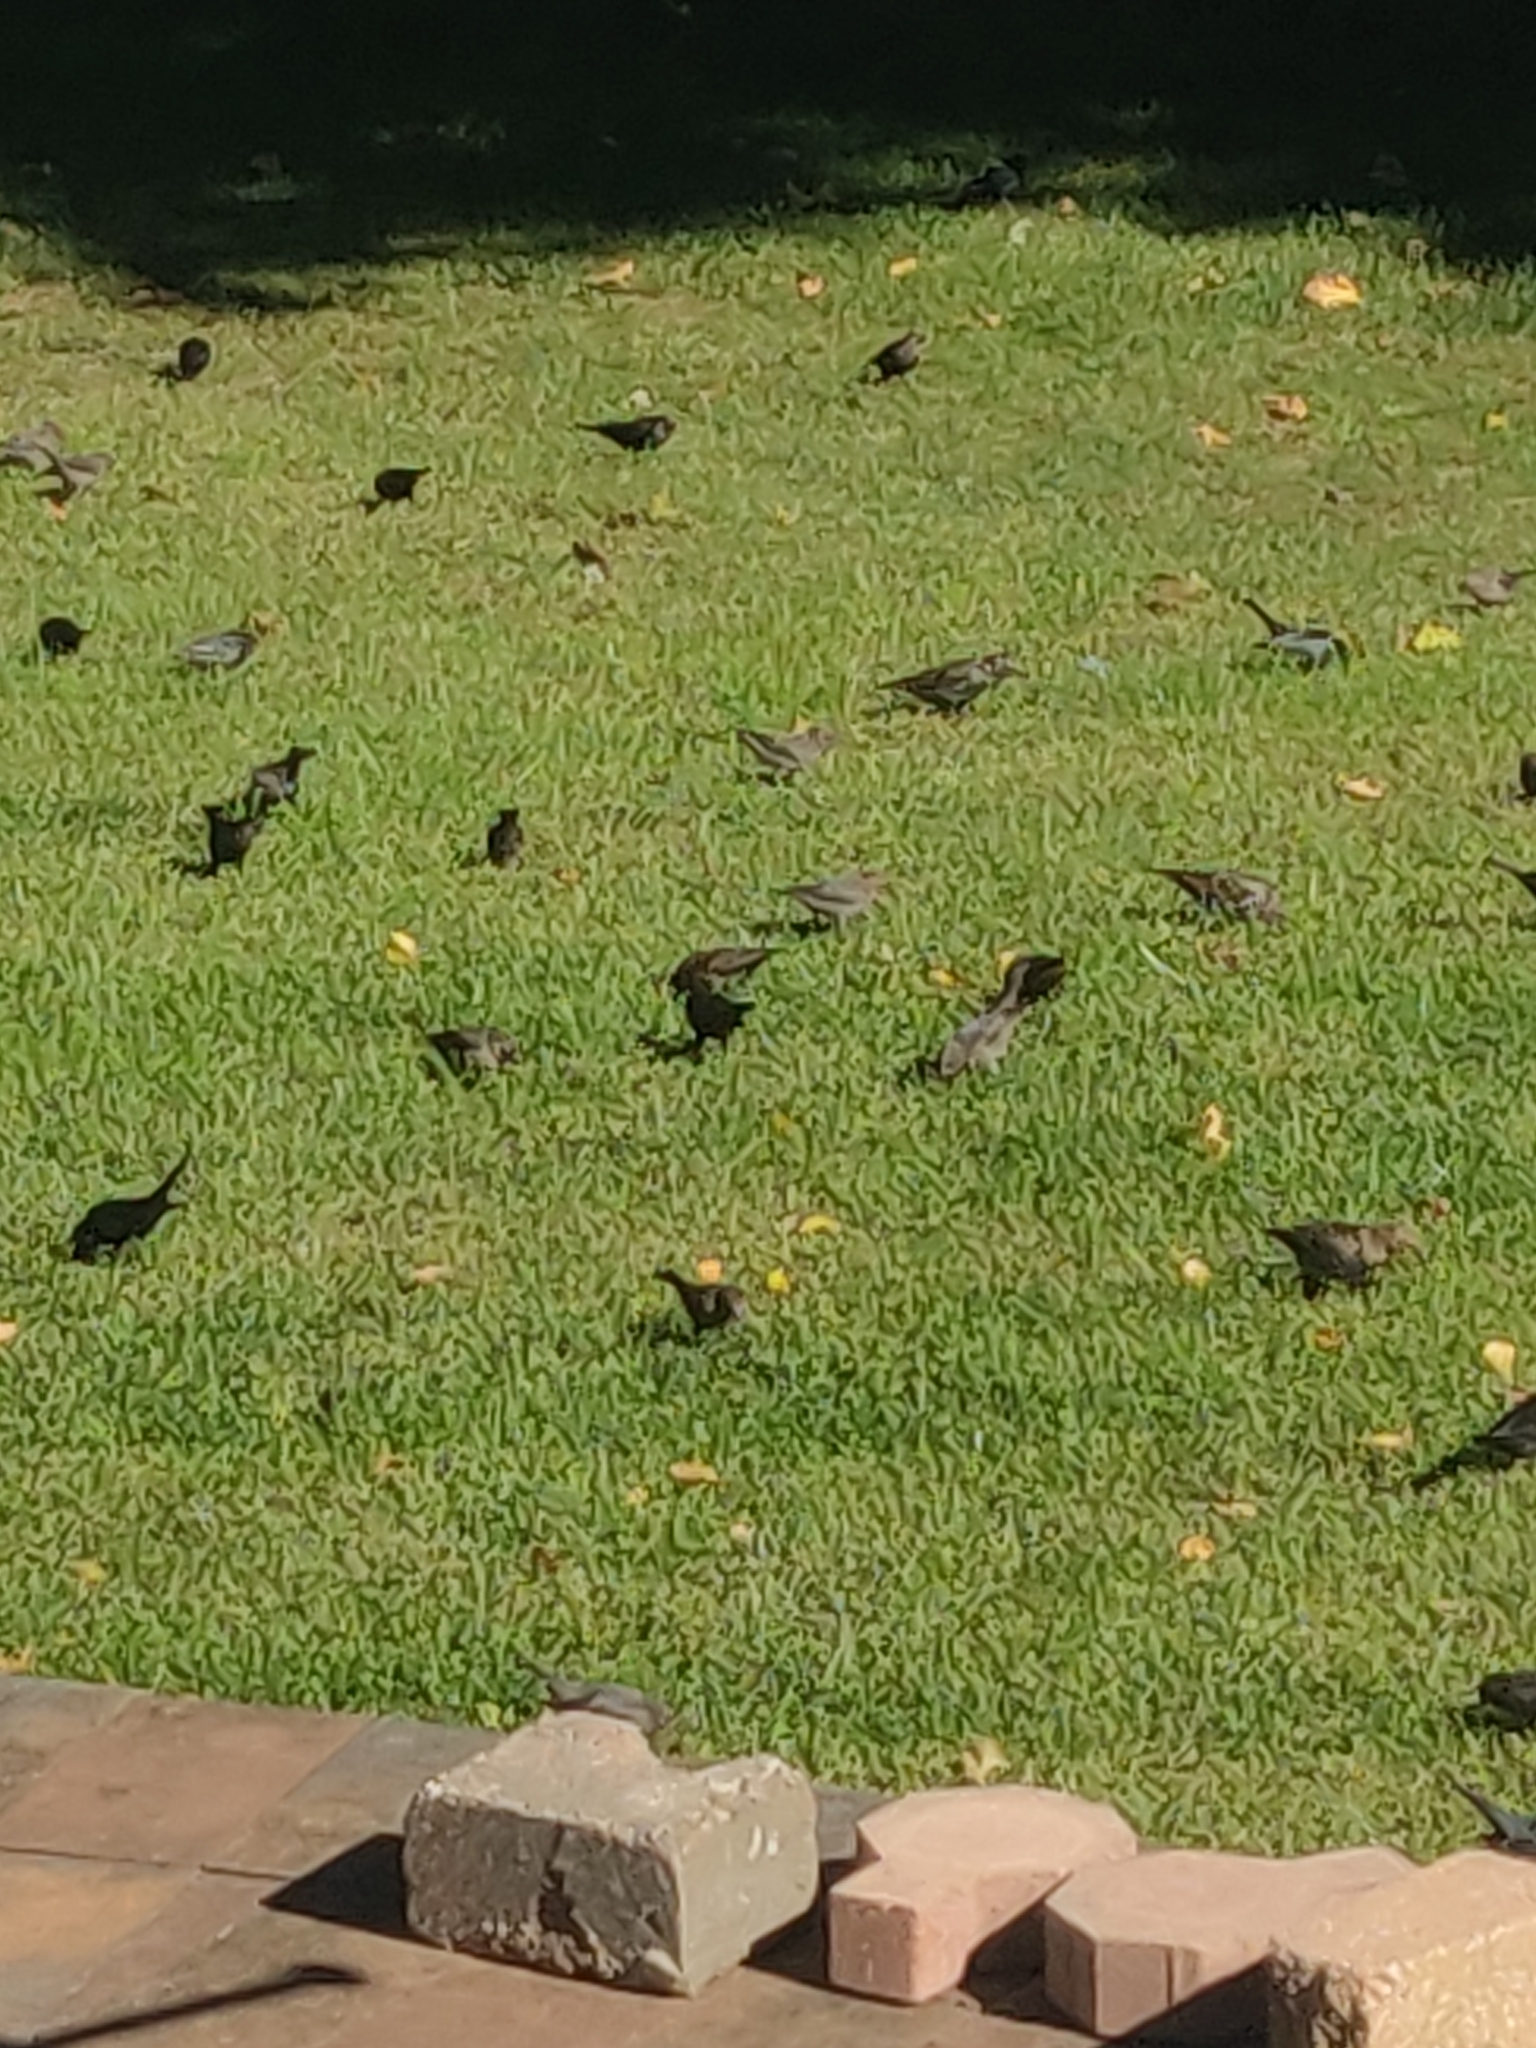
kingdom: Animalia
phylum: Chordata
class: Aves
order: Passeriformes
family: Icteridae
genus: Molothrus
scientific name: Molothrus ater
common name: Brown-headed cowbird
